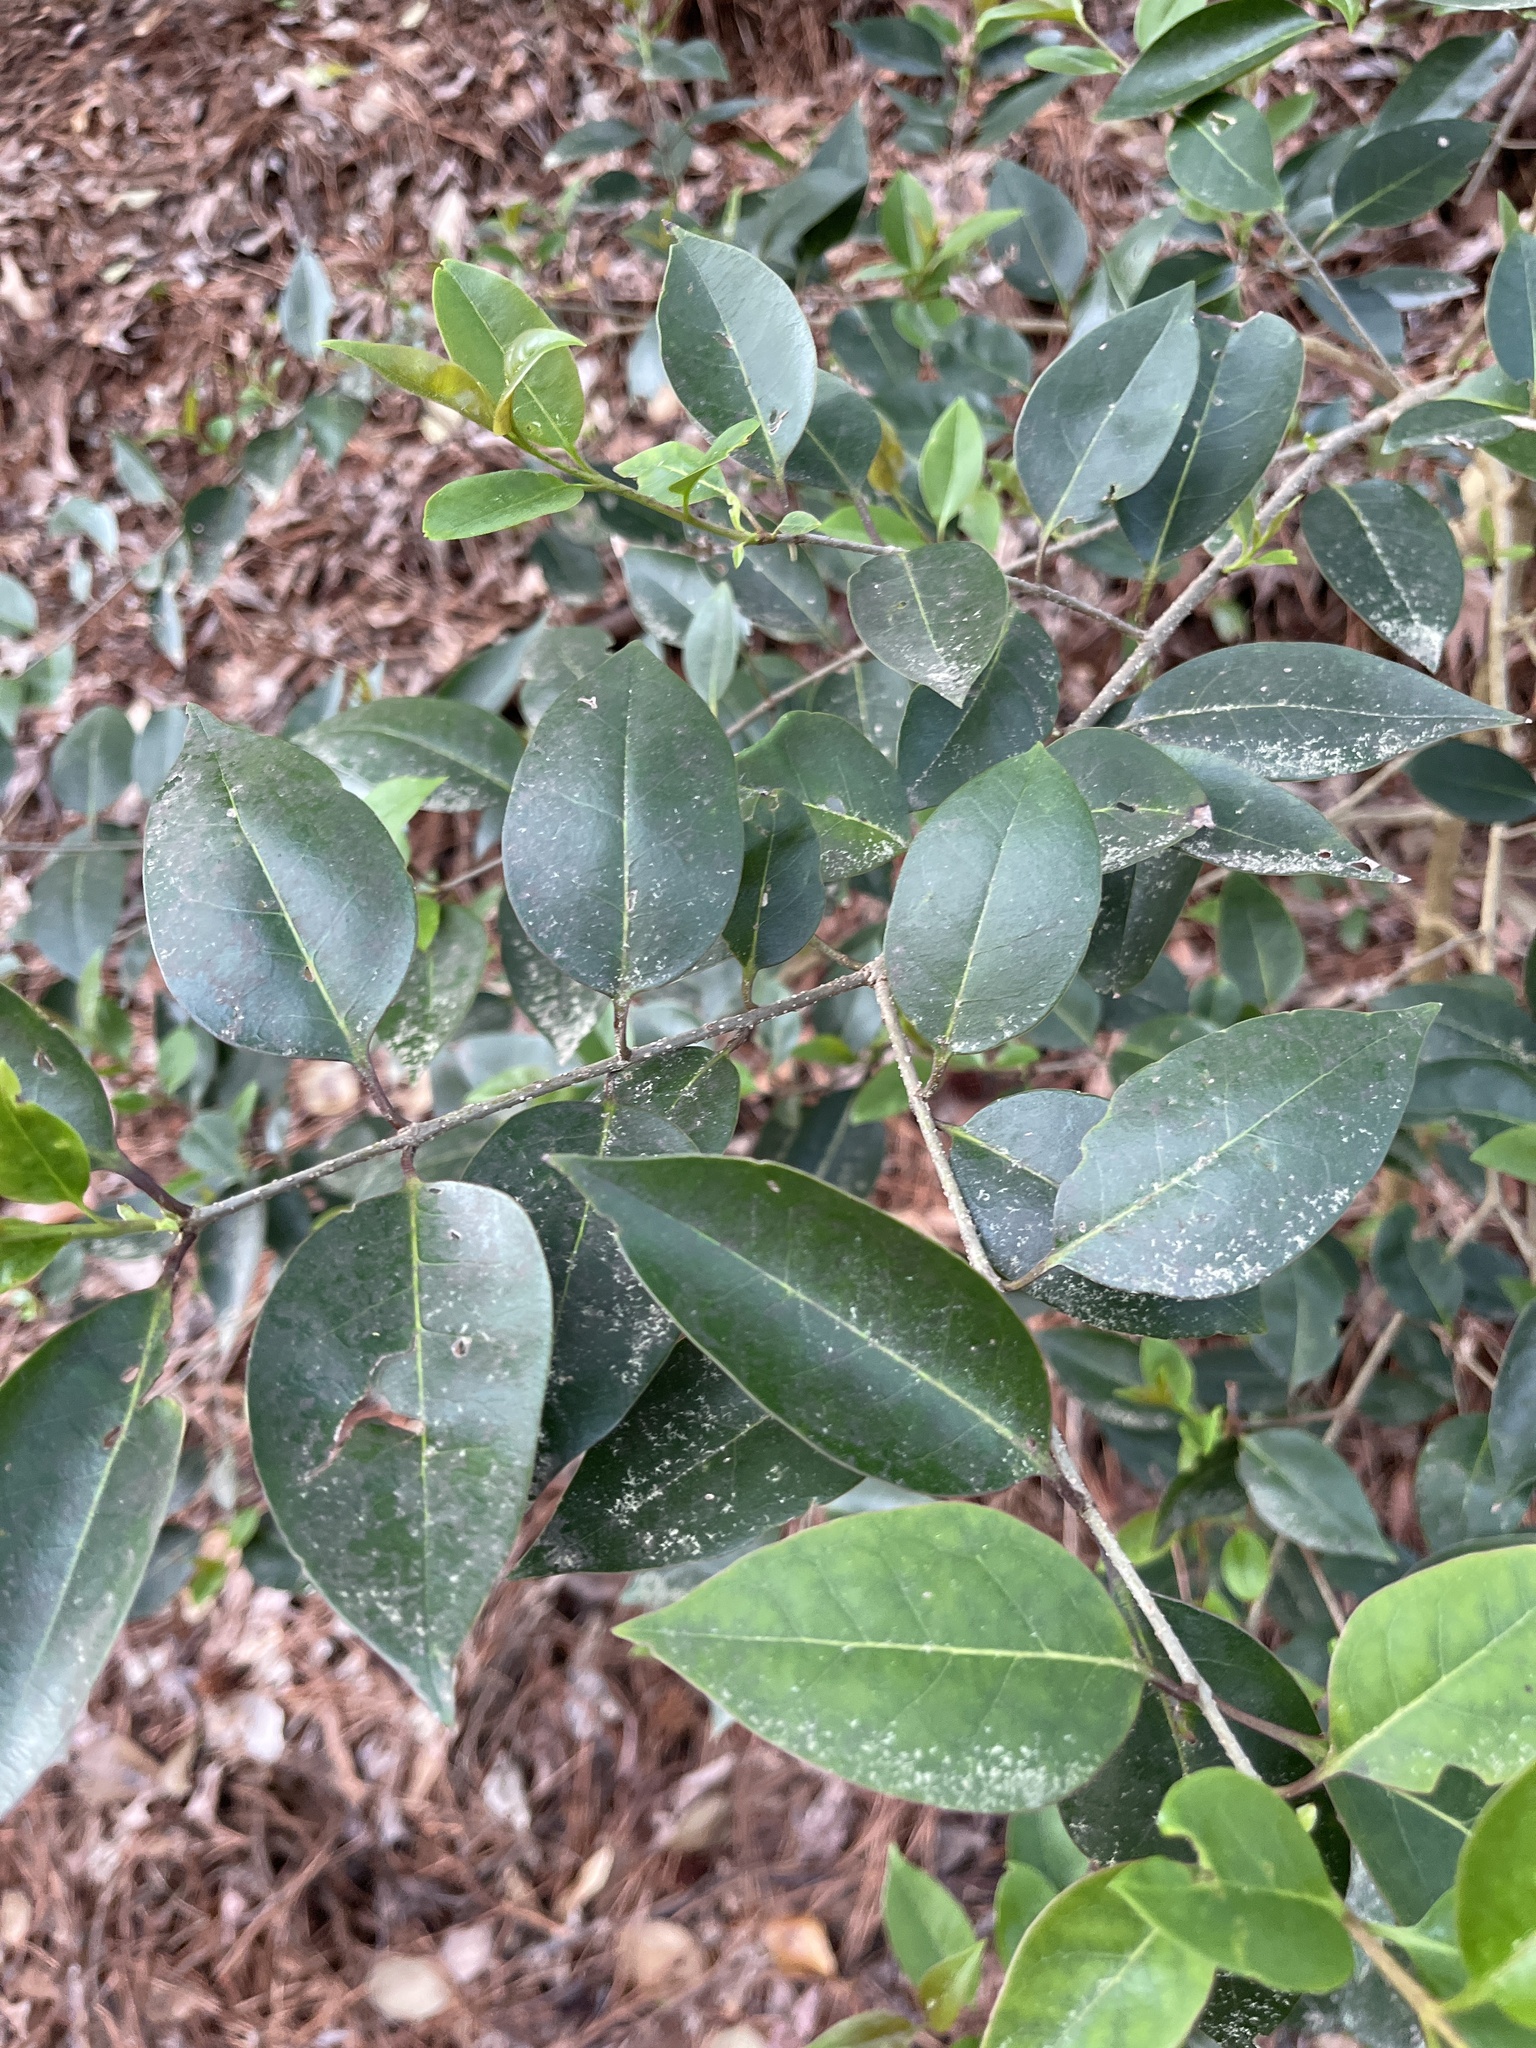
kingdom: Plantae
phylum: Tracheophyta
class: Magnoliopsida
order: Lamiales
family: Oleaceae
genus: Ligustrum
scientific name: Ligustrum lucidum
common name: Glossy privet
